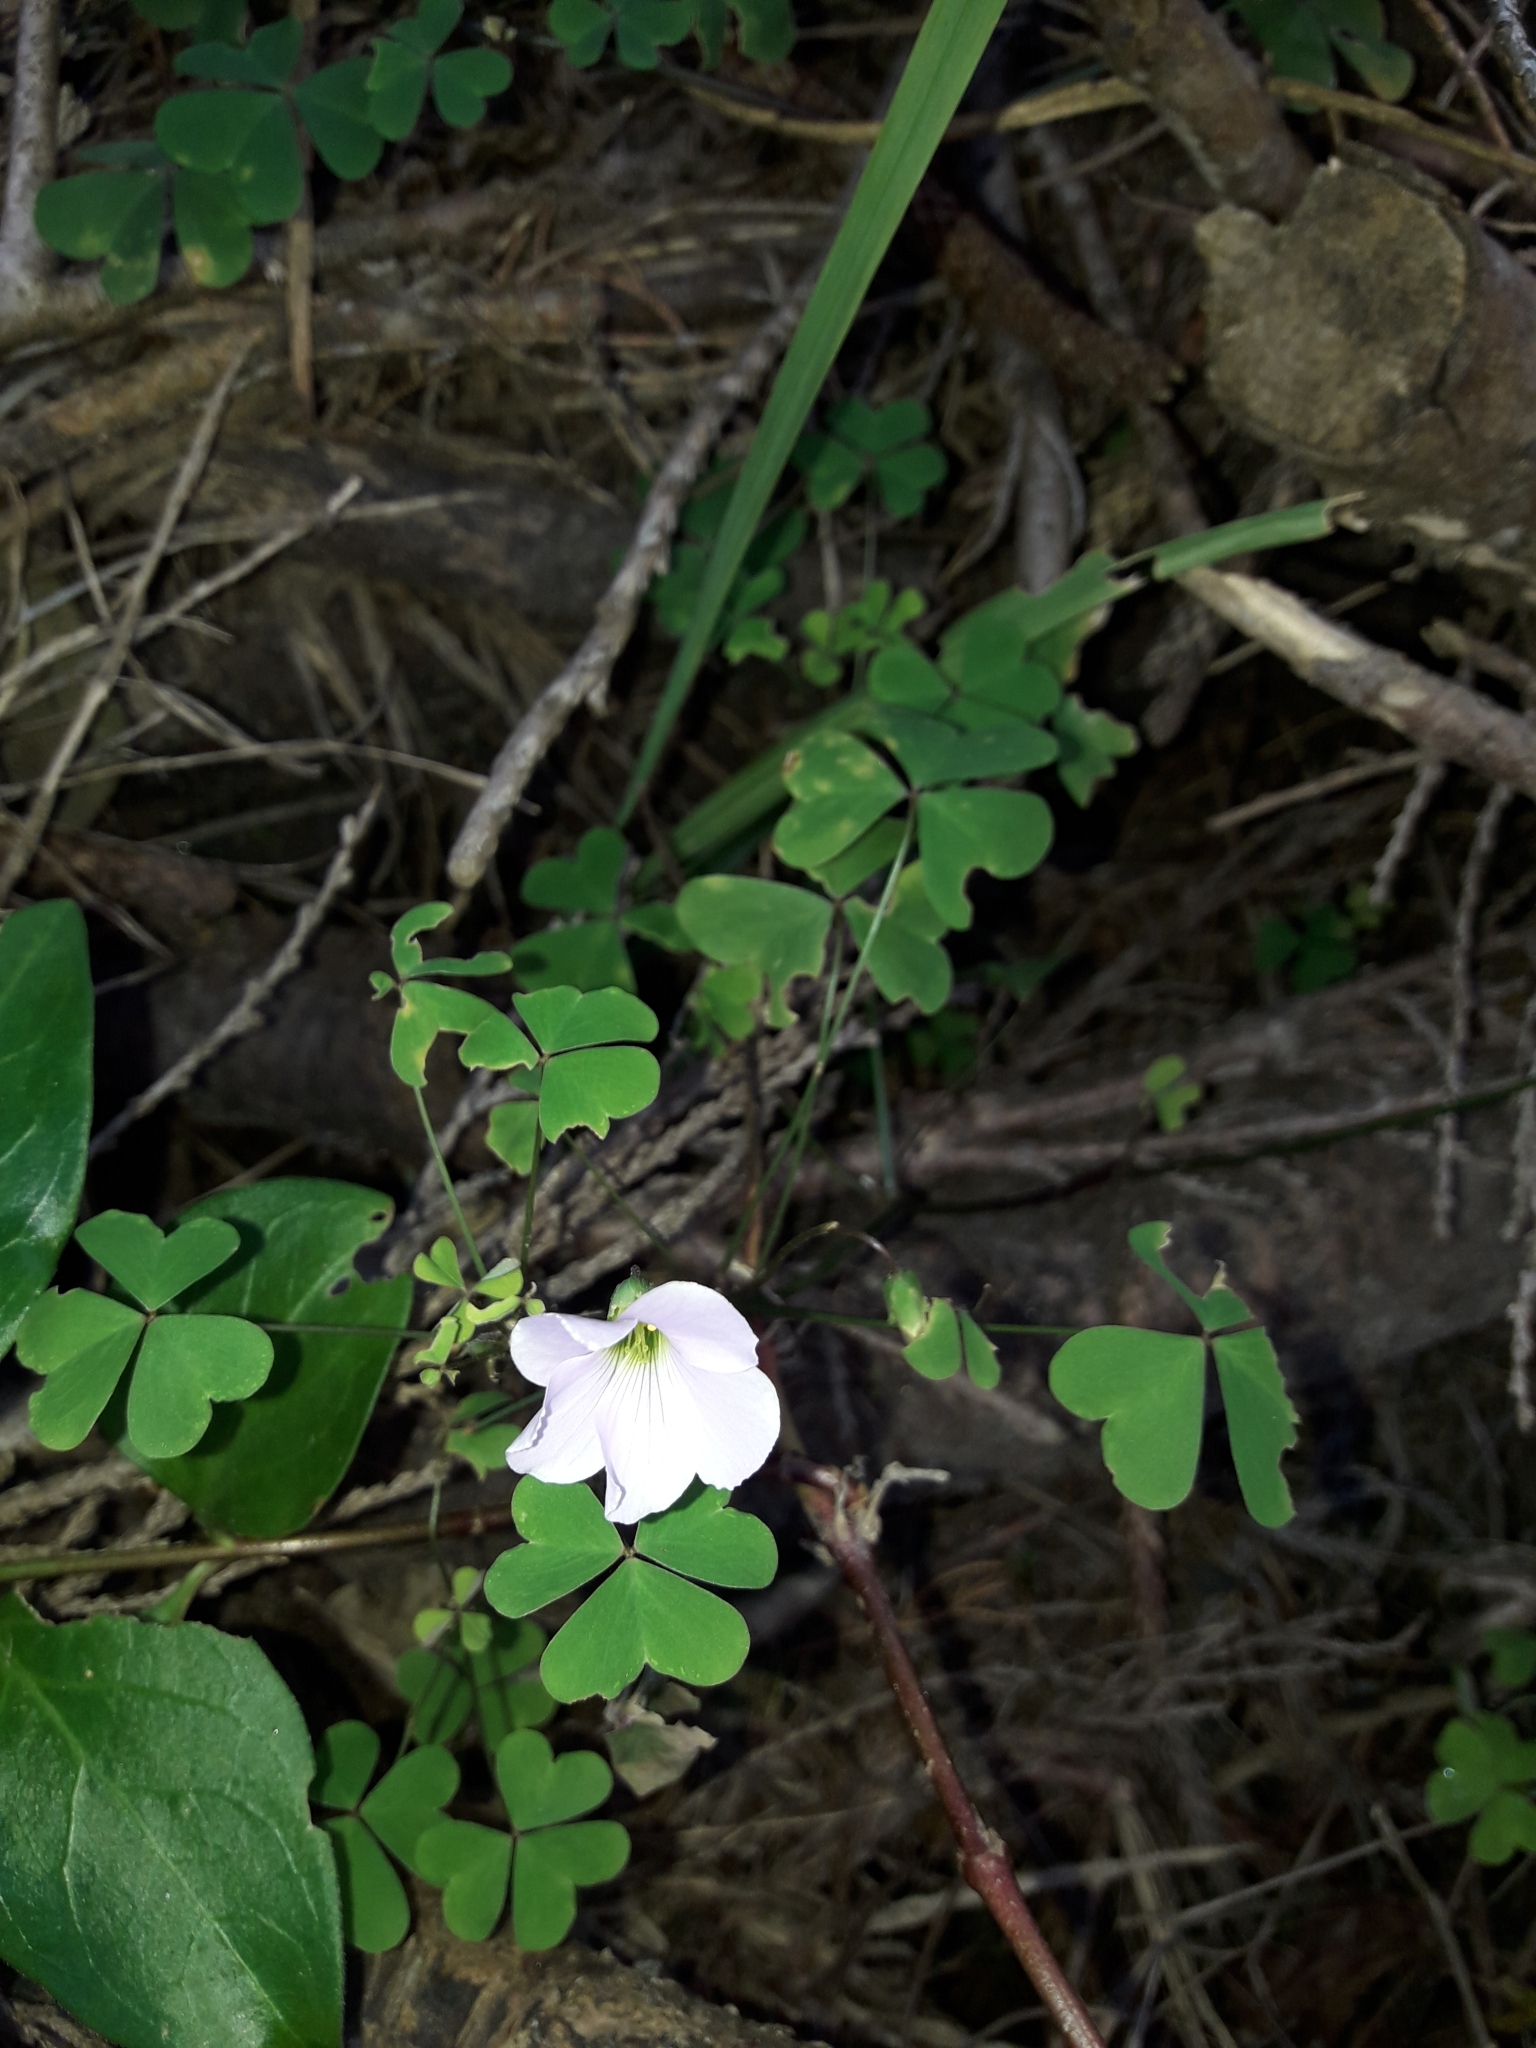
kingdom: Plantae
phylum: Tracheophyta
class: Magnoliopsida
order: Oxalidales
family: Oxalidaceae
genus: Oxalis
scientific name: Oxalis incarnata
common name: Pale pink-sorrel
